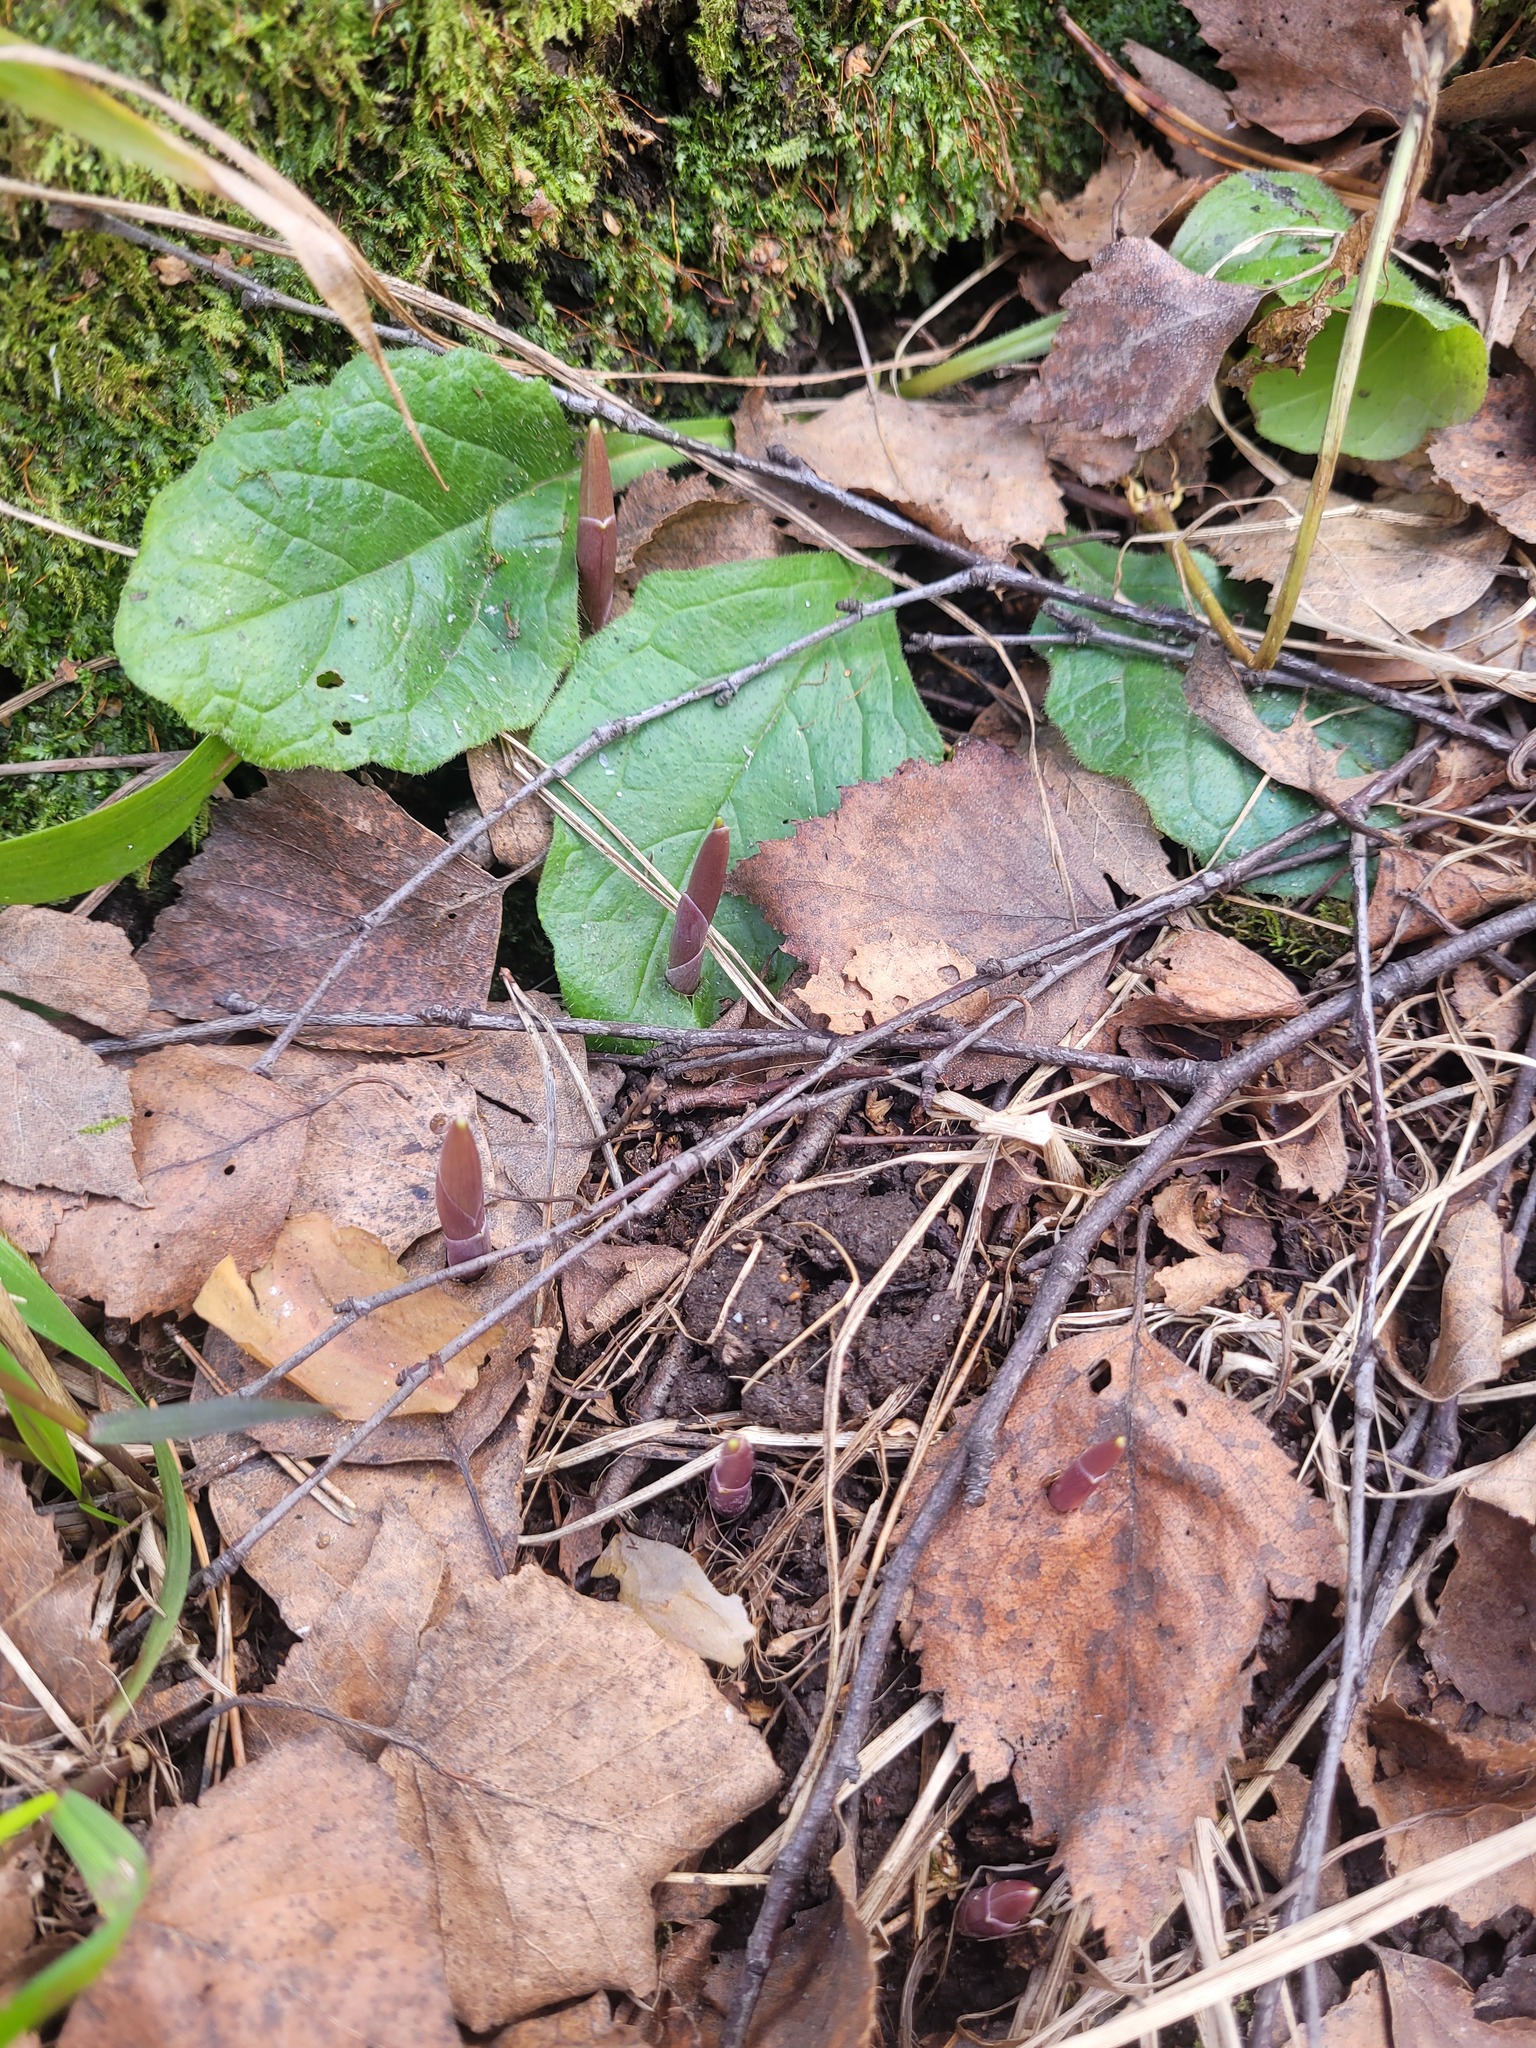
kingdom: Plantae
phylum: Tracheophyta
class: Liliopsida
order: Asparagales
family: Asparagaceae
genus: Convallaria
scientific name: Convallaria majalis
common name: Lily-of-the-valley
